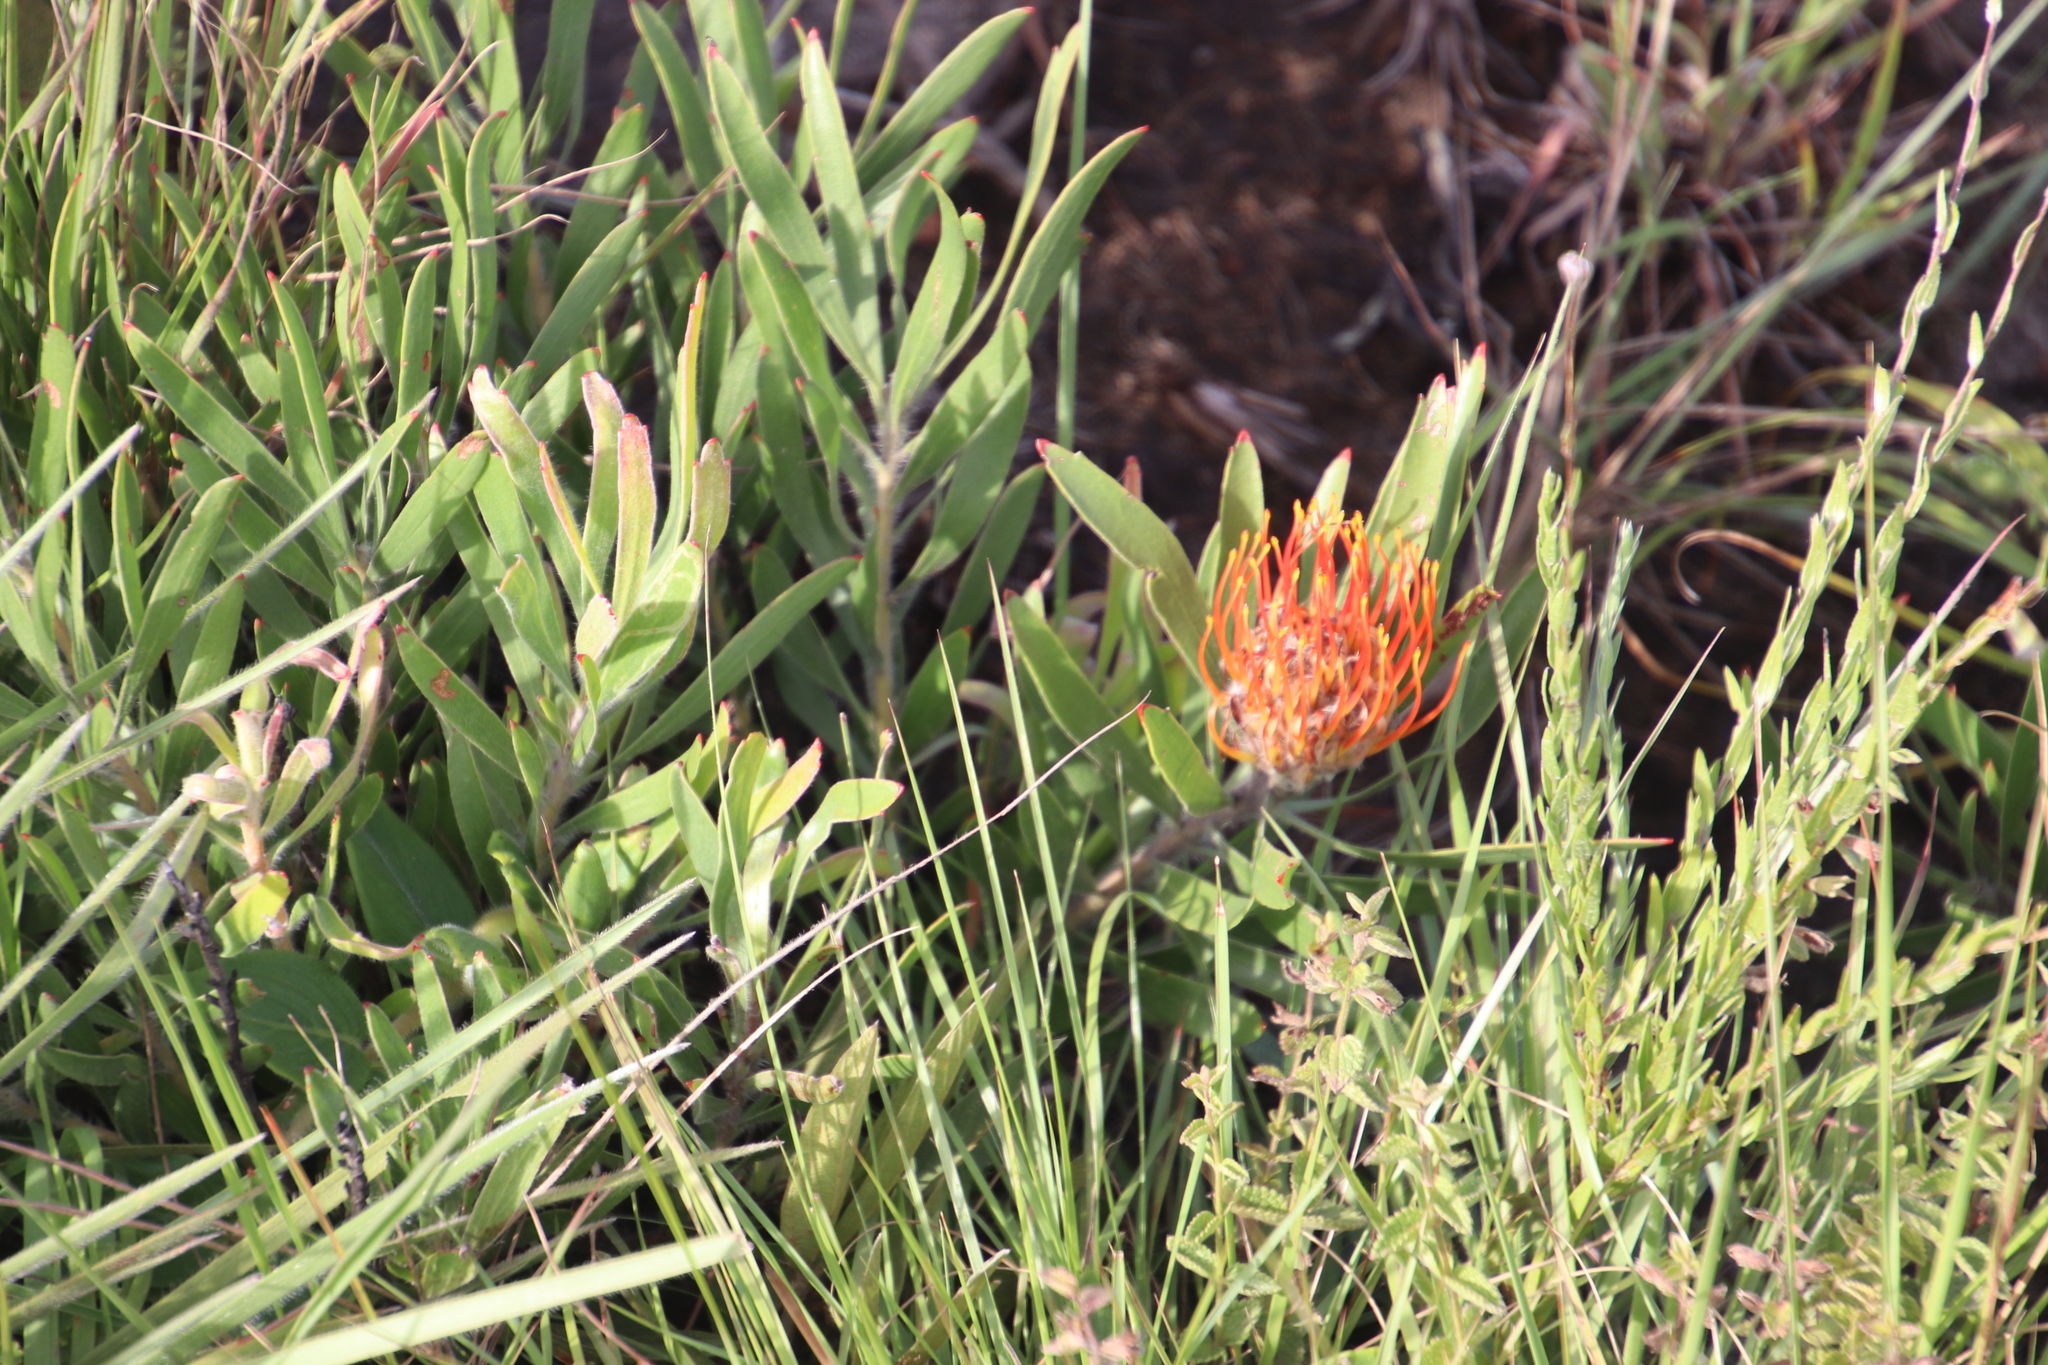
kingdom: Plantae
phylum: Tracheophyta
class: Magnoliopsida
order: Proteales
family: Proteaceae
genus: Leucospermum
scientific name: Leucospermum gerrardii
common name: Soapstone pincushion
